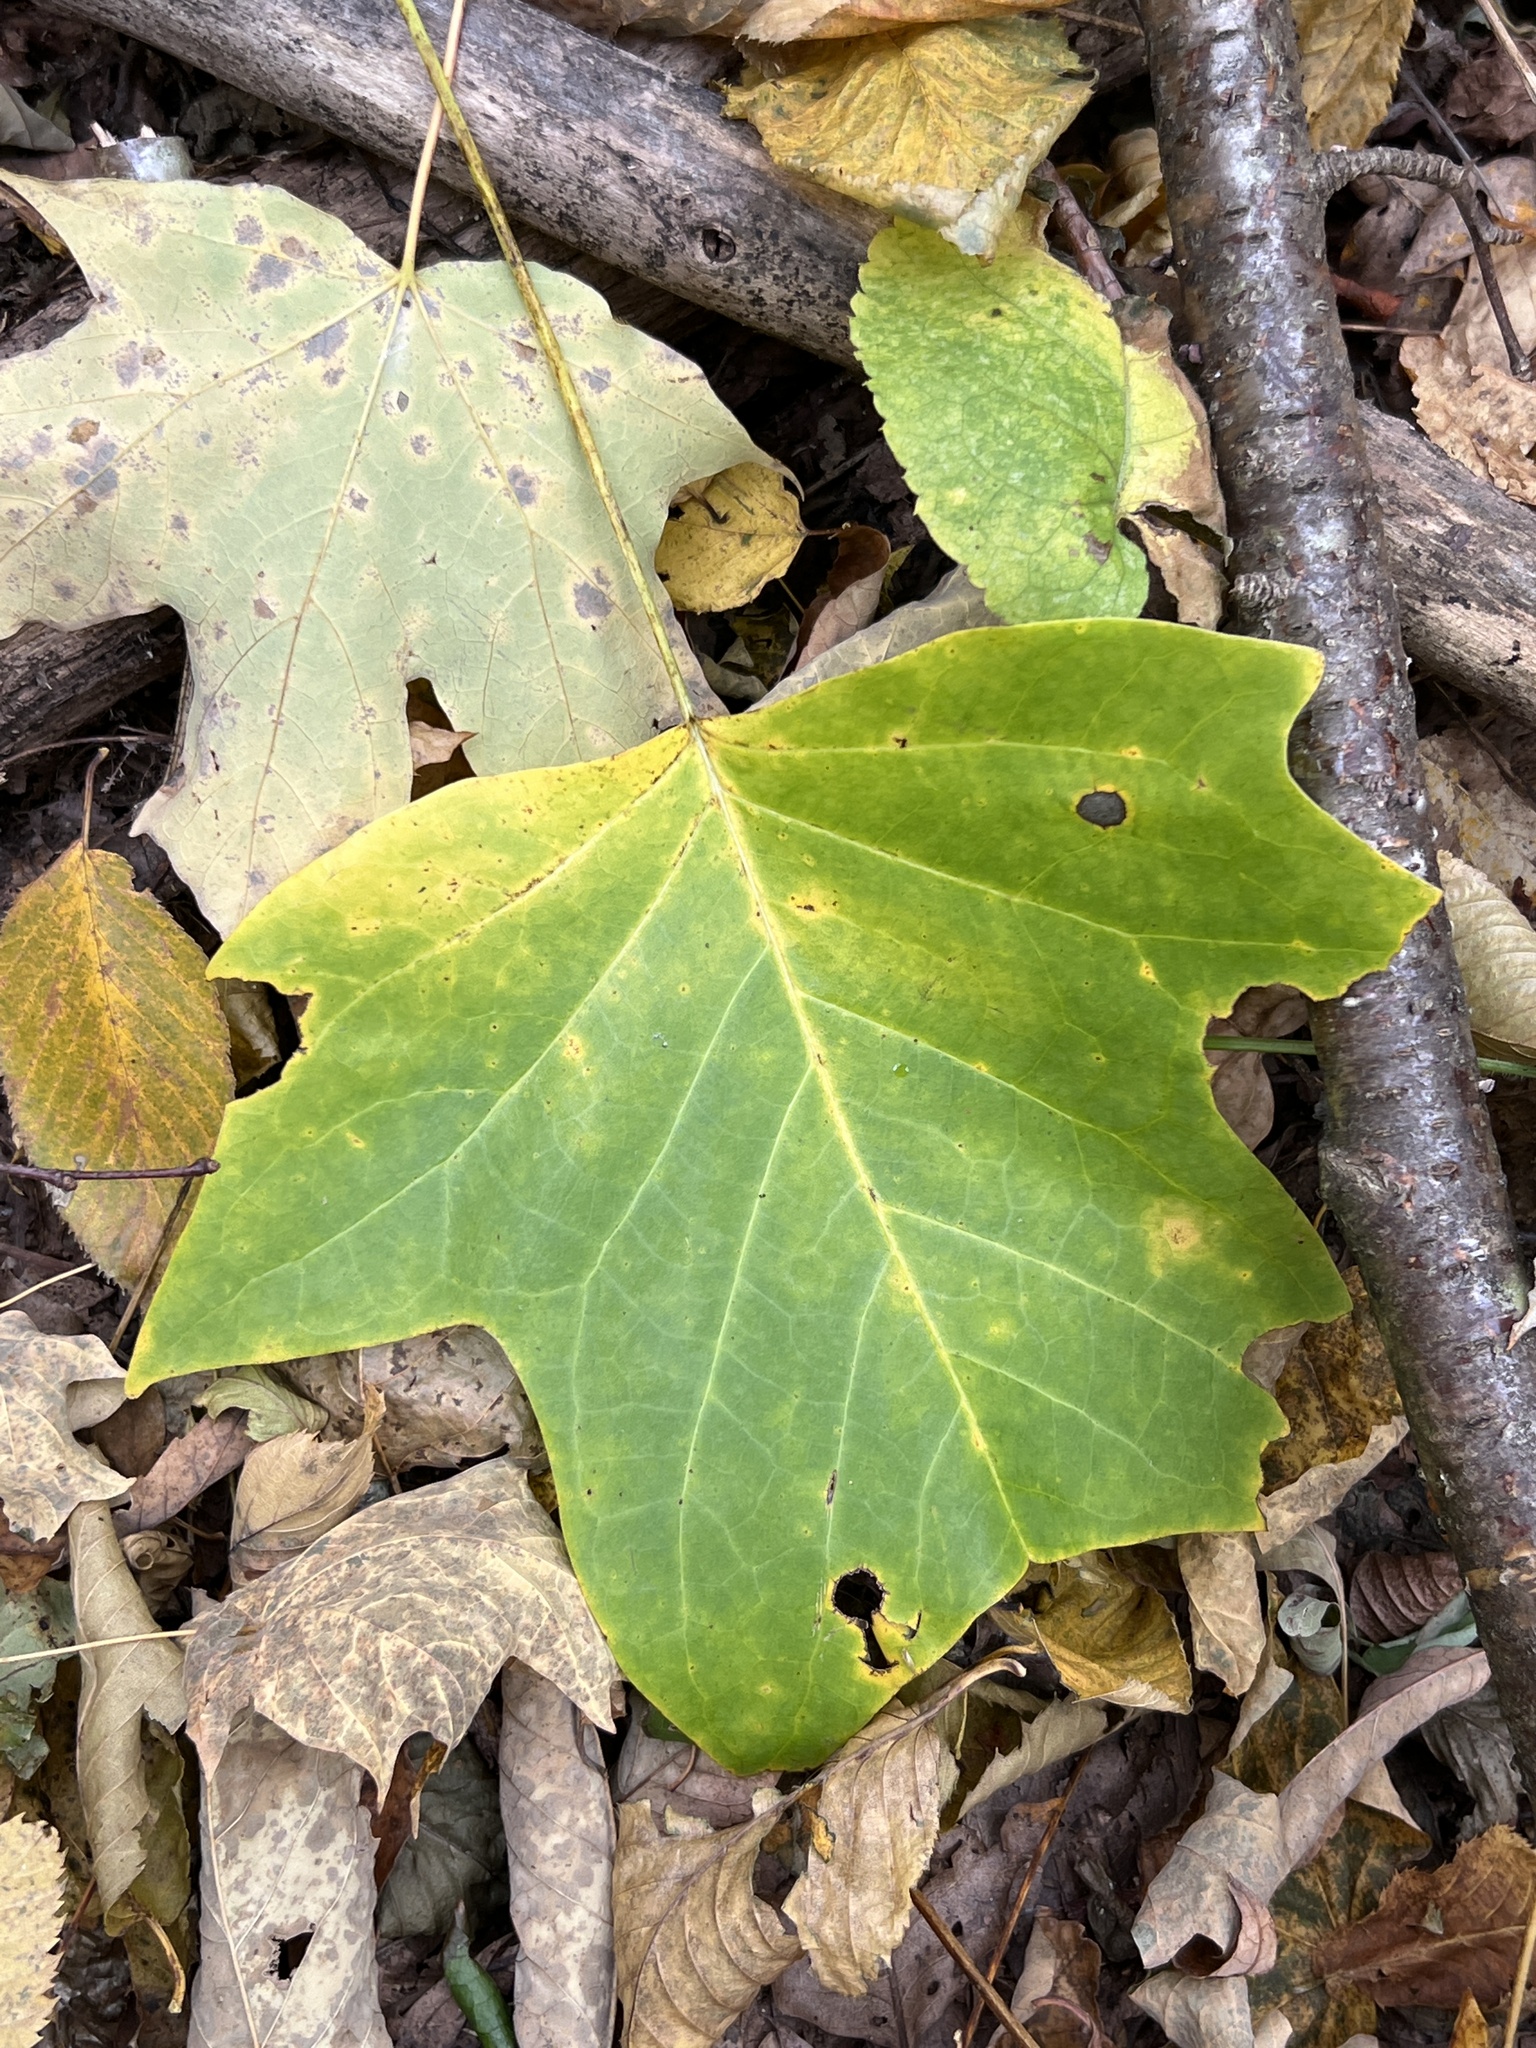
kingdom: Plantae
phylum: Tracheophyta
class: Magnoliopsida
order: Magnoliales
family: Magnoliaceae
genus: Liriodendron
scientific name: Liriodendron tulipifera
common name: Tulip tree
